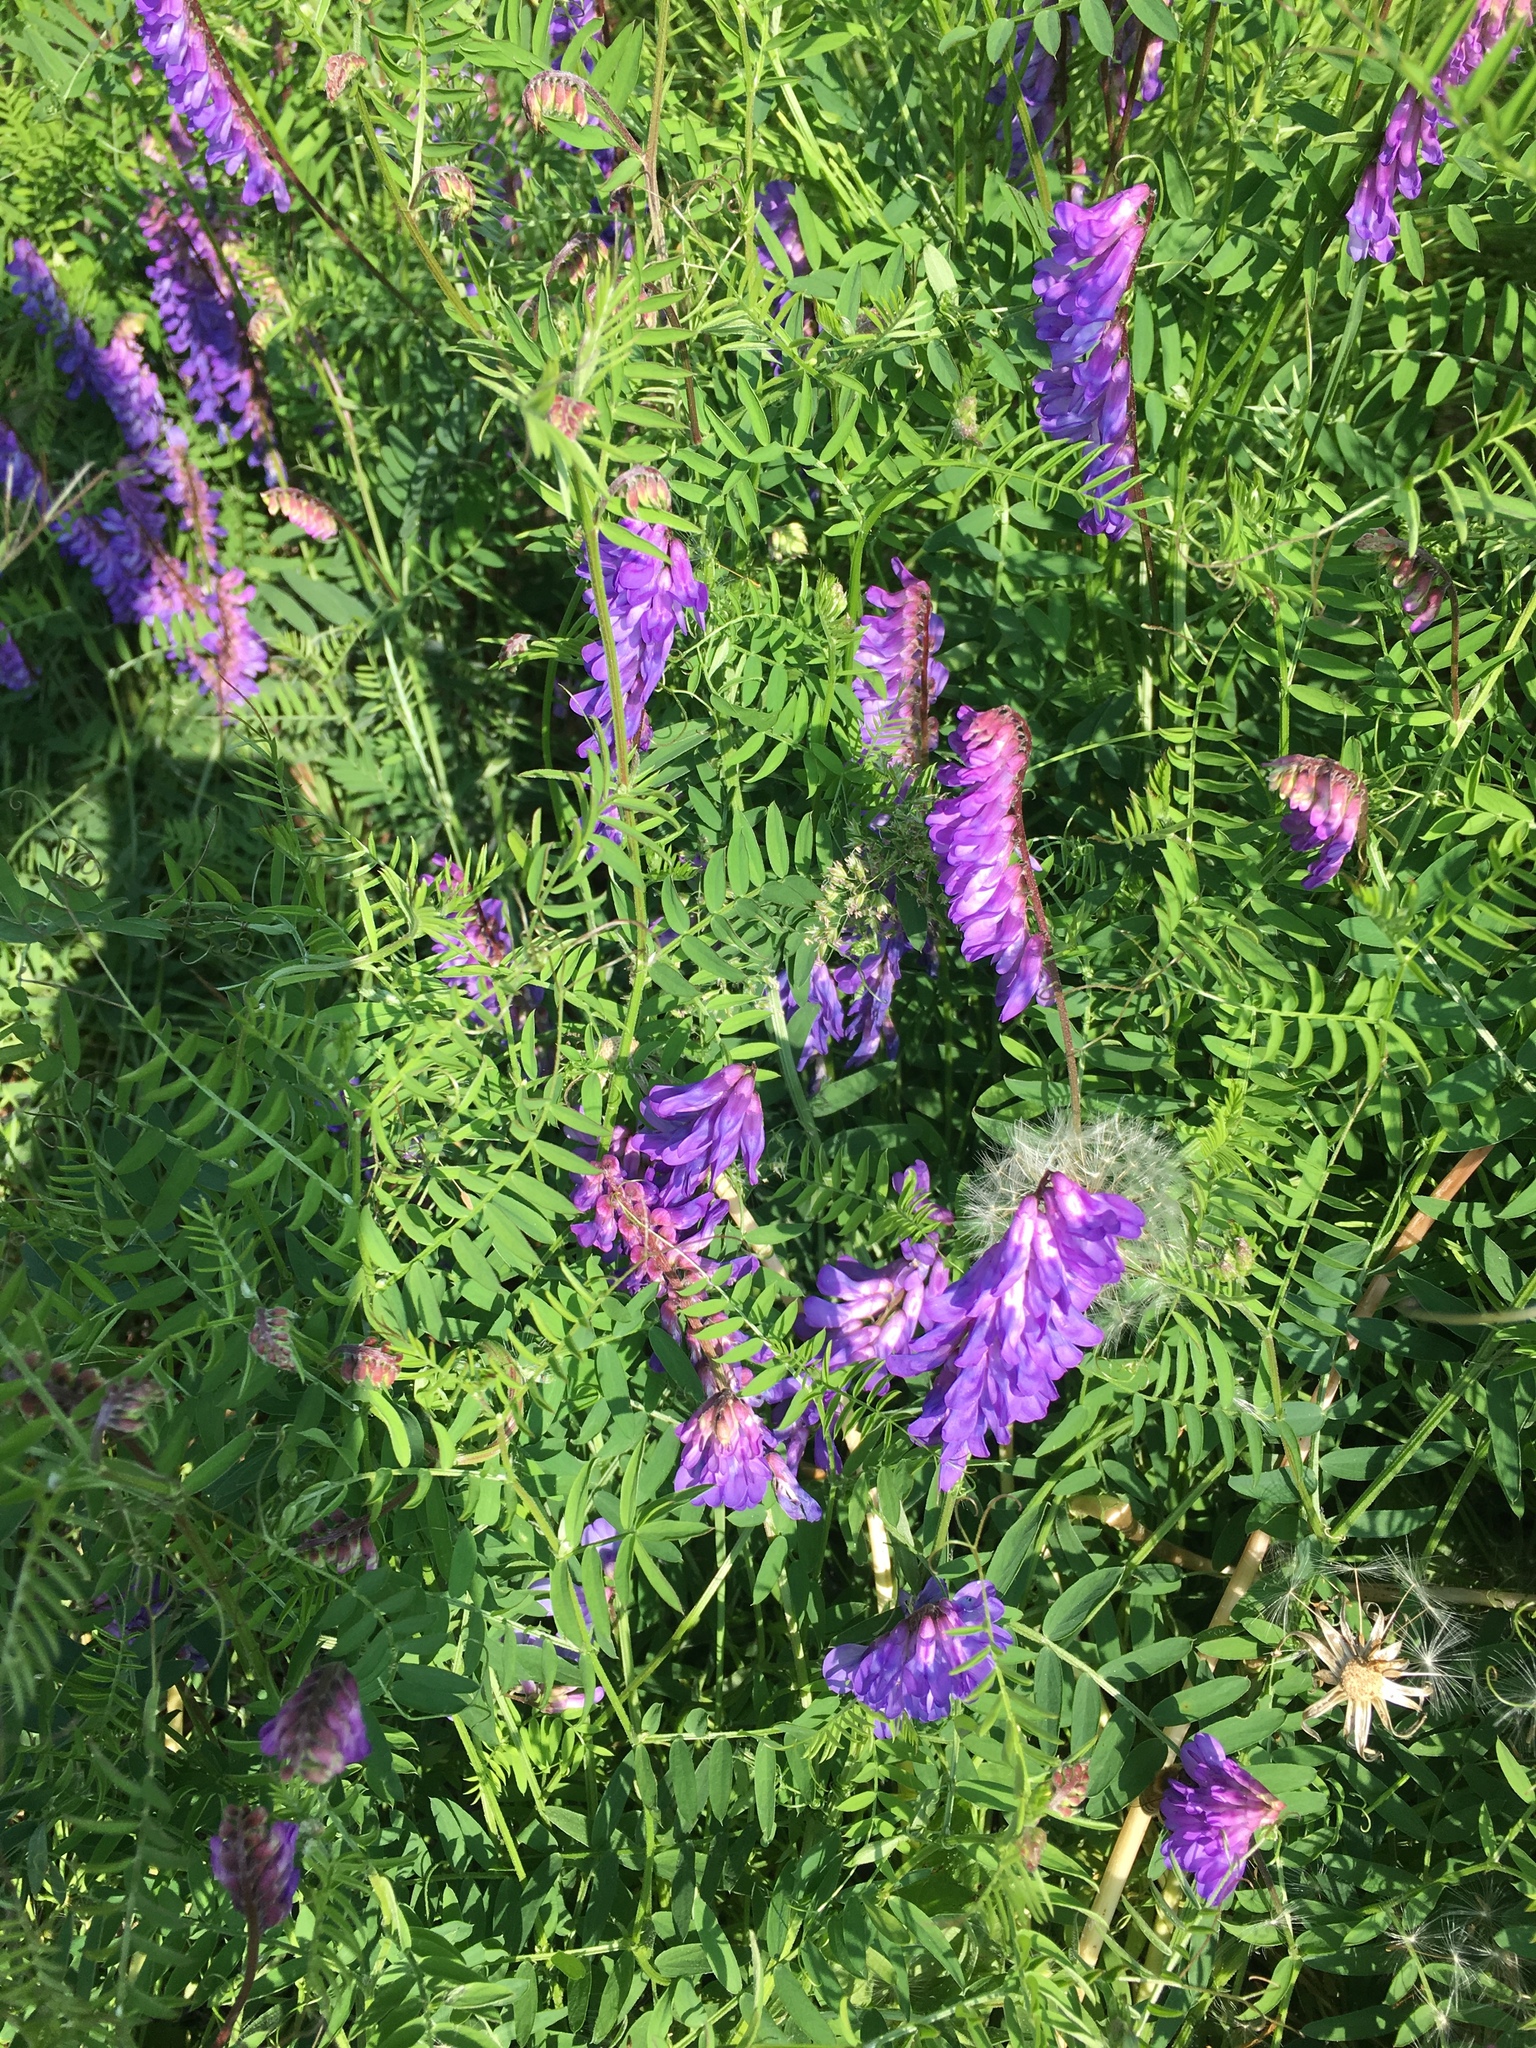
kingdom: Plantae
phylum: Tracheophyta
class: Magnoliopsida
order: Fabales
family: Fabaceae
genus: Vicia
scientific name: Vicia cracca
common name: Bird vetch
